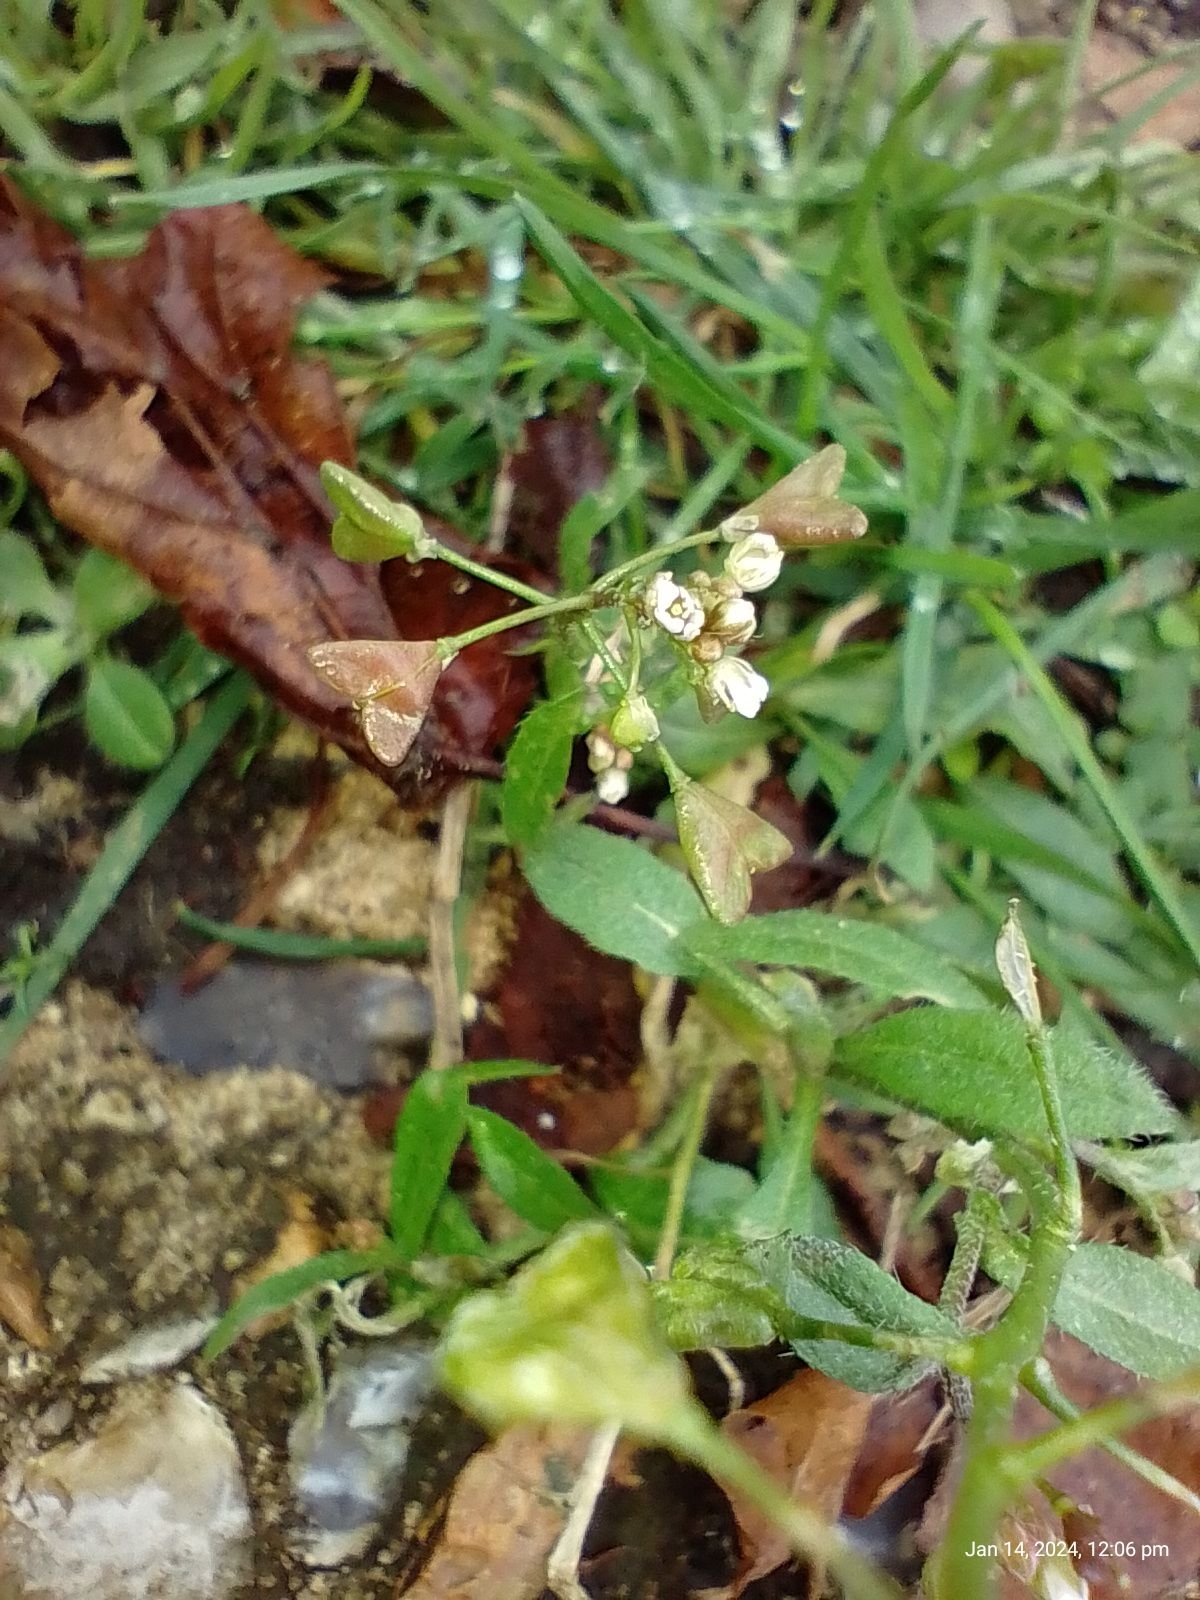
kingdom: Plantae
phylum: Tracheophyta
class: Magnoliopsida
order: Brassicales
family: Brassicaceae
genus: Capsella
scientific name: Capsella bursa-pastoris
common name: Shepherd's purse
